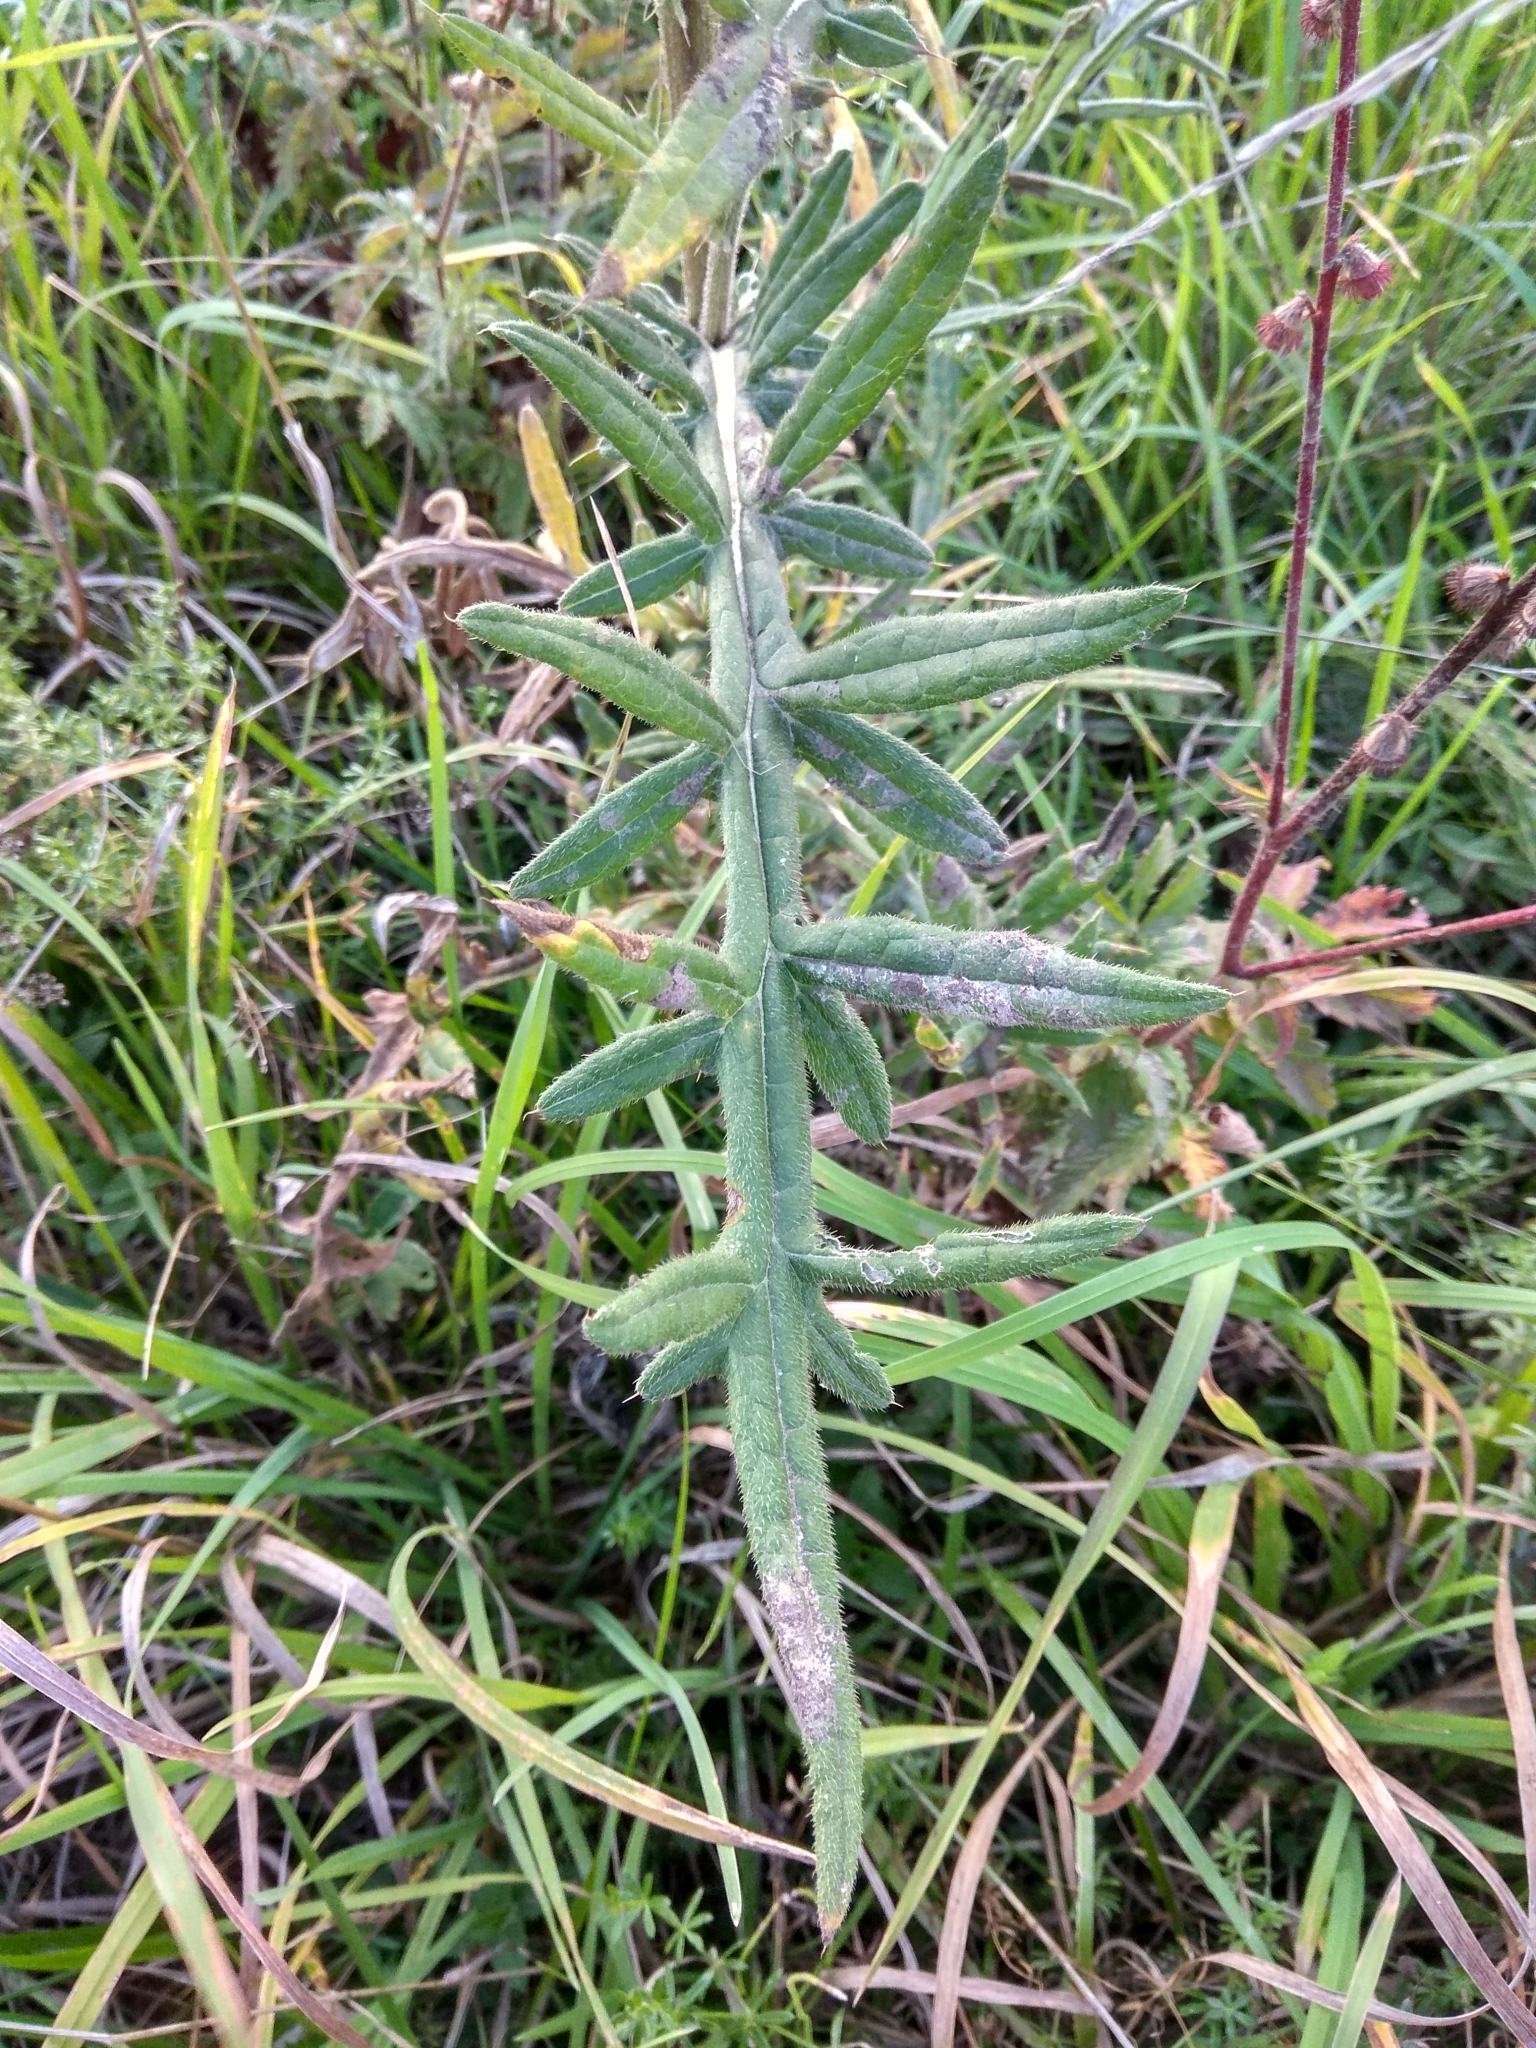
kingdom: Plantae
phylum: Tracheophyta
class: Magnoliopsida
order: Asterales
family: Asteraceae
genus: Lophiolepis
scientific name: Lophiolepis decussata
